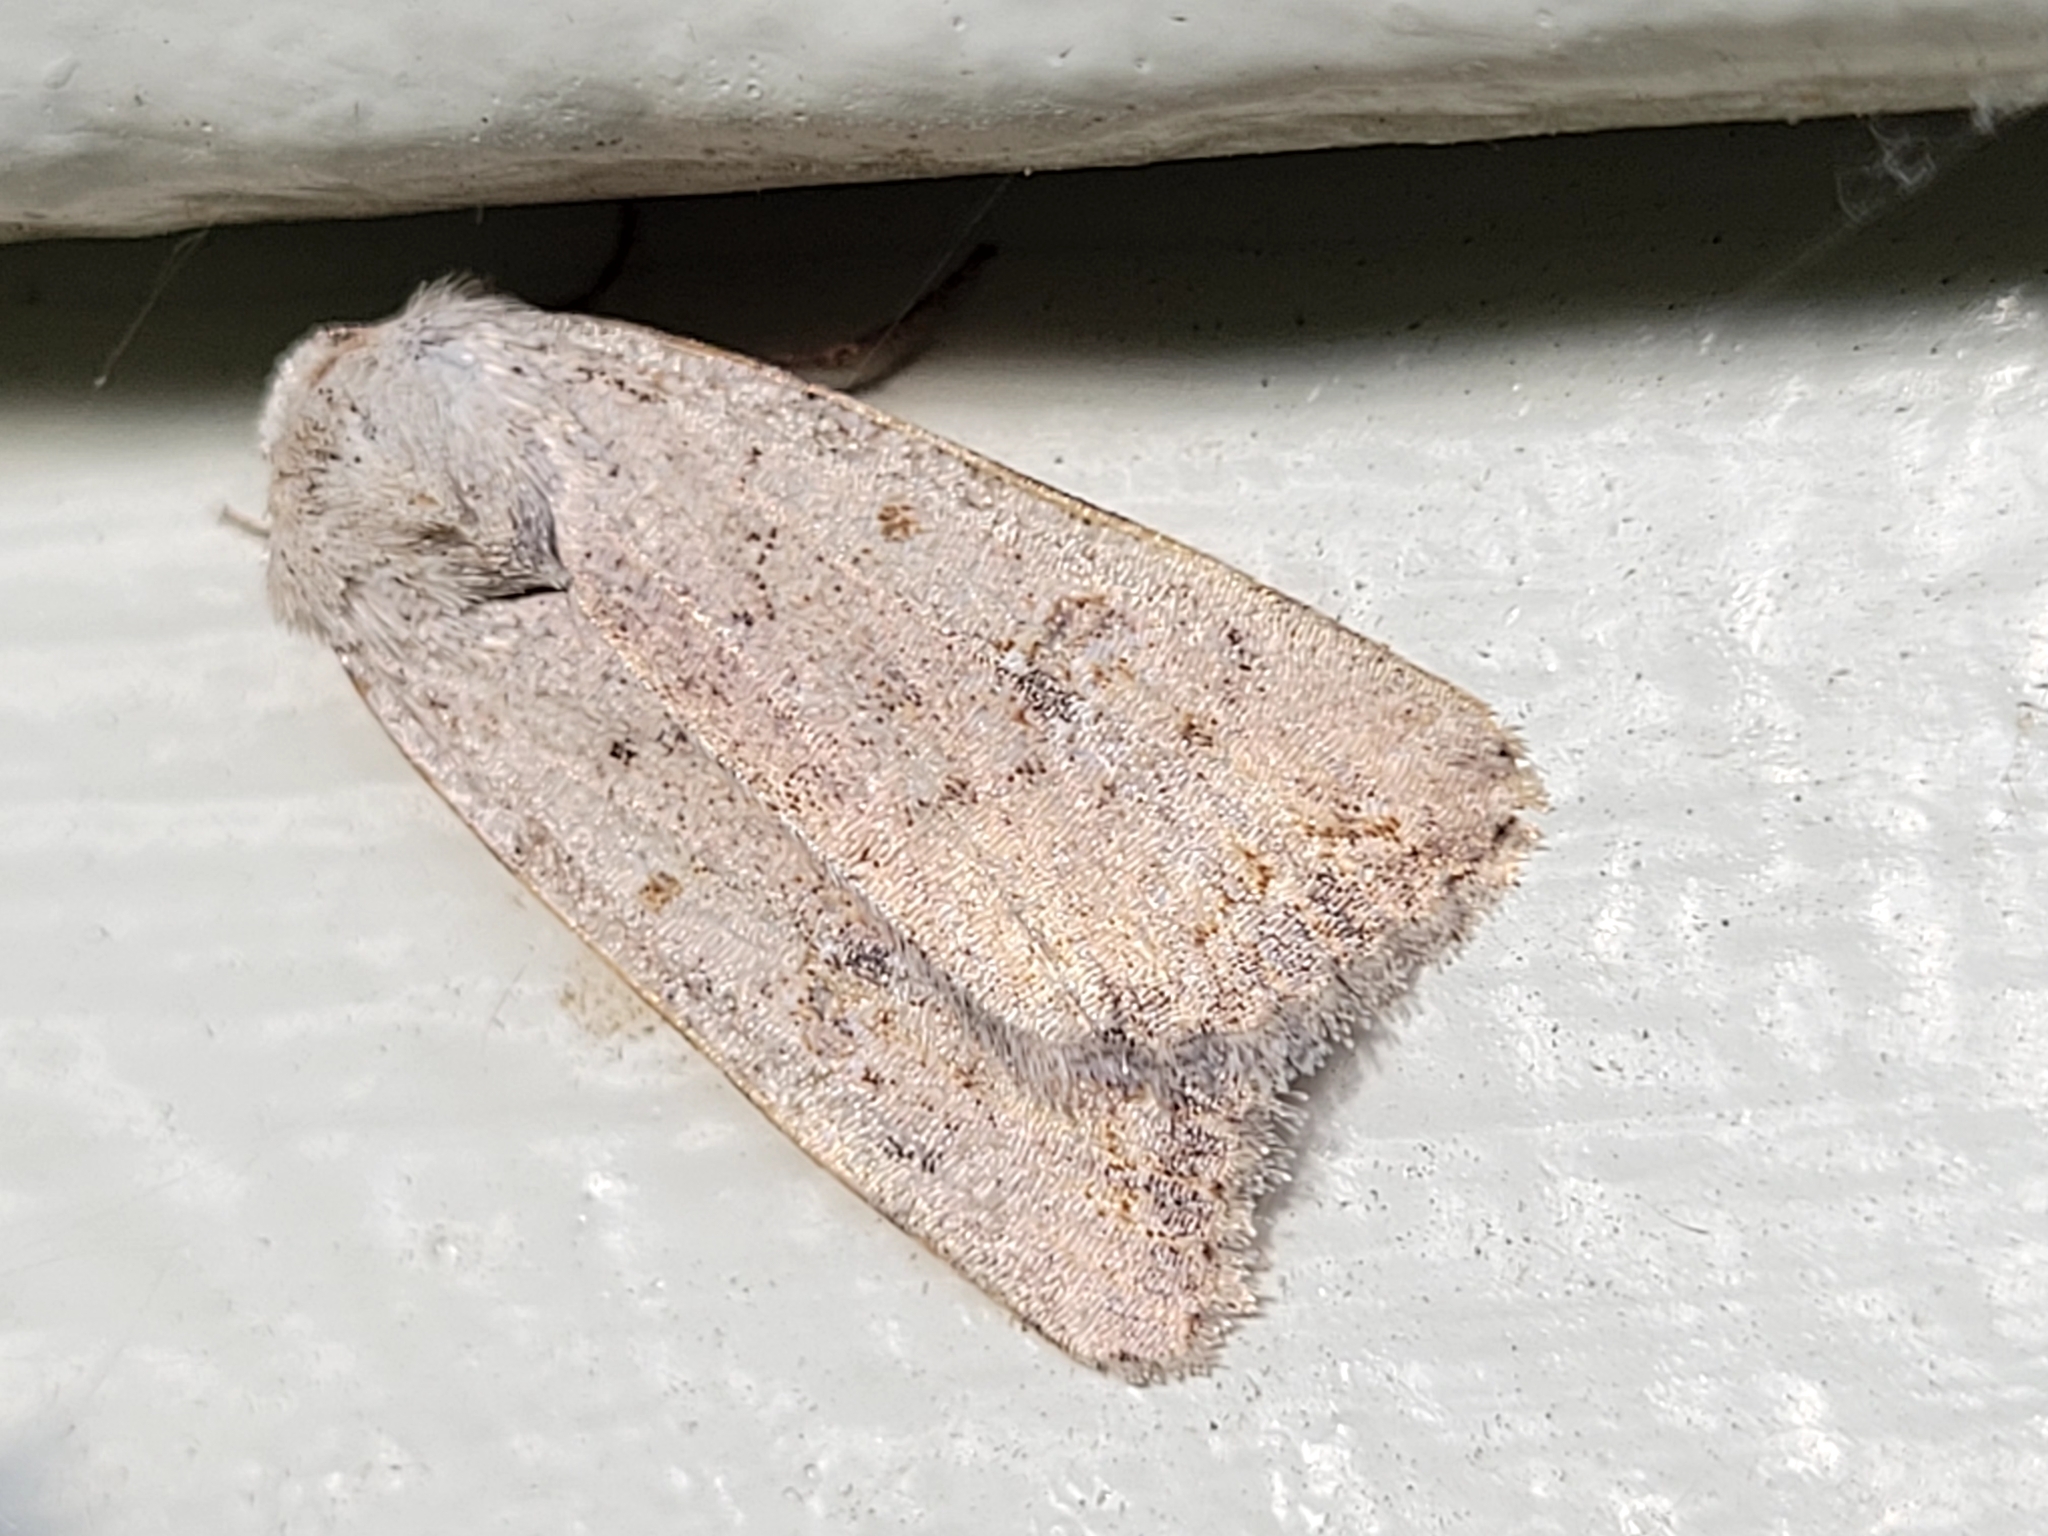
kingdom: Animalia
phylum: Arthropoda
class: Insecta
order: Lepidoptera
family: Noctuidae
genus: Caradrina
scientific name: Caradrina montana
